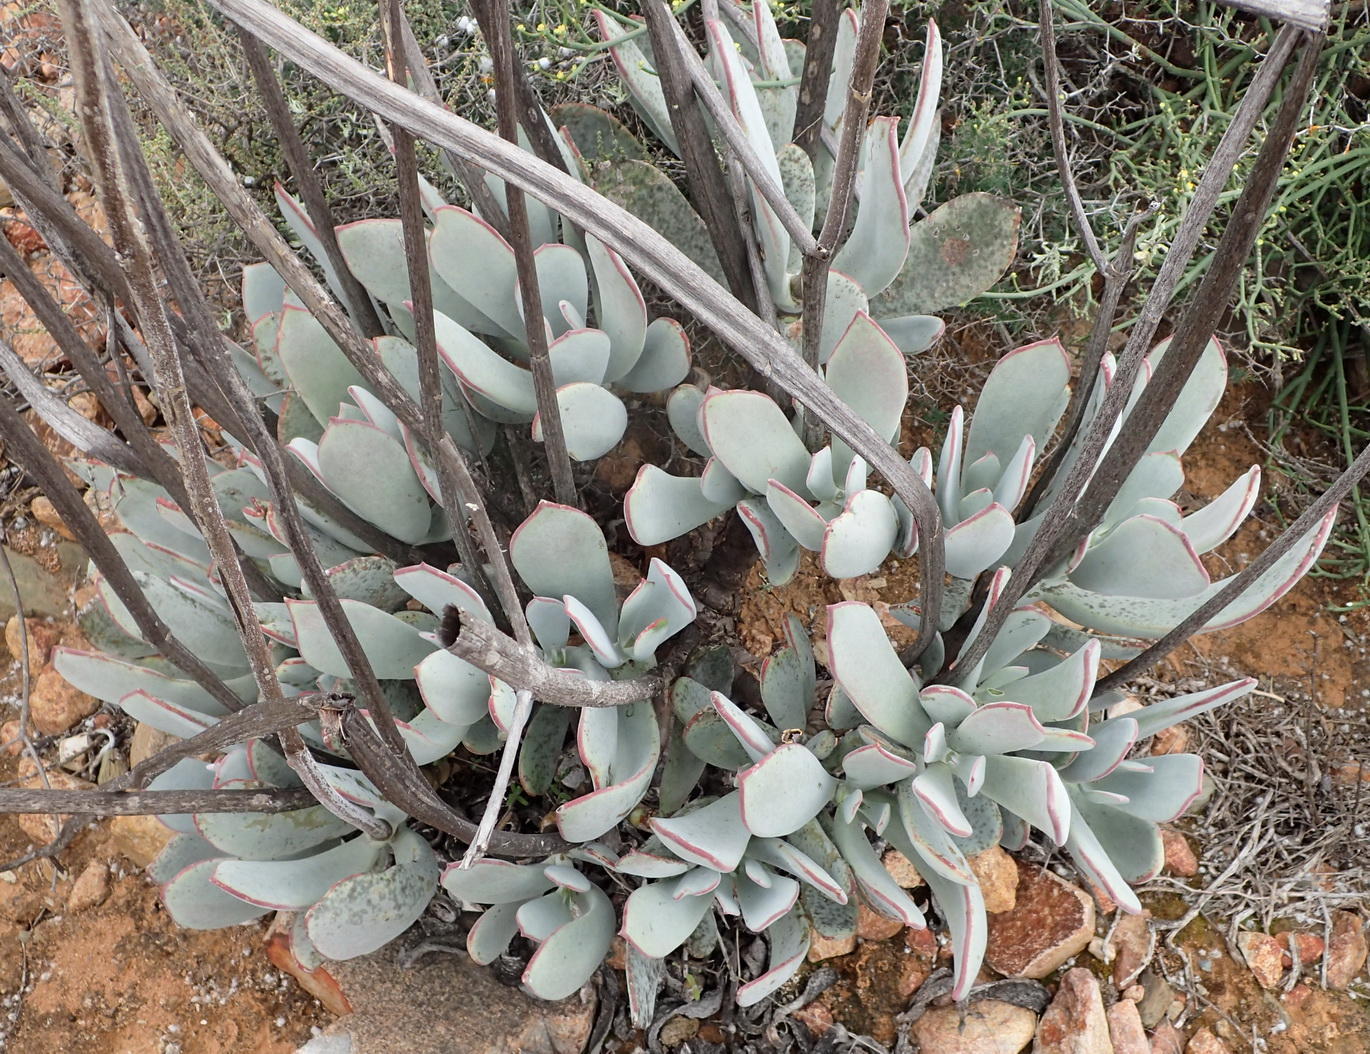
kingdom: Plantae
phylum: Tracheophyta
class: Magnoliopsida
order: Saxifragales
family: Crassulaceae
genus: Cotyledon
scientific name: Cotyledon orbiculata
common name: Pig's ear
